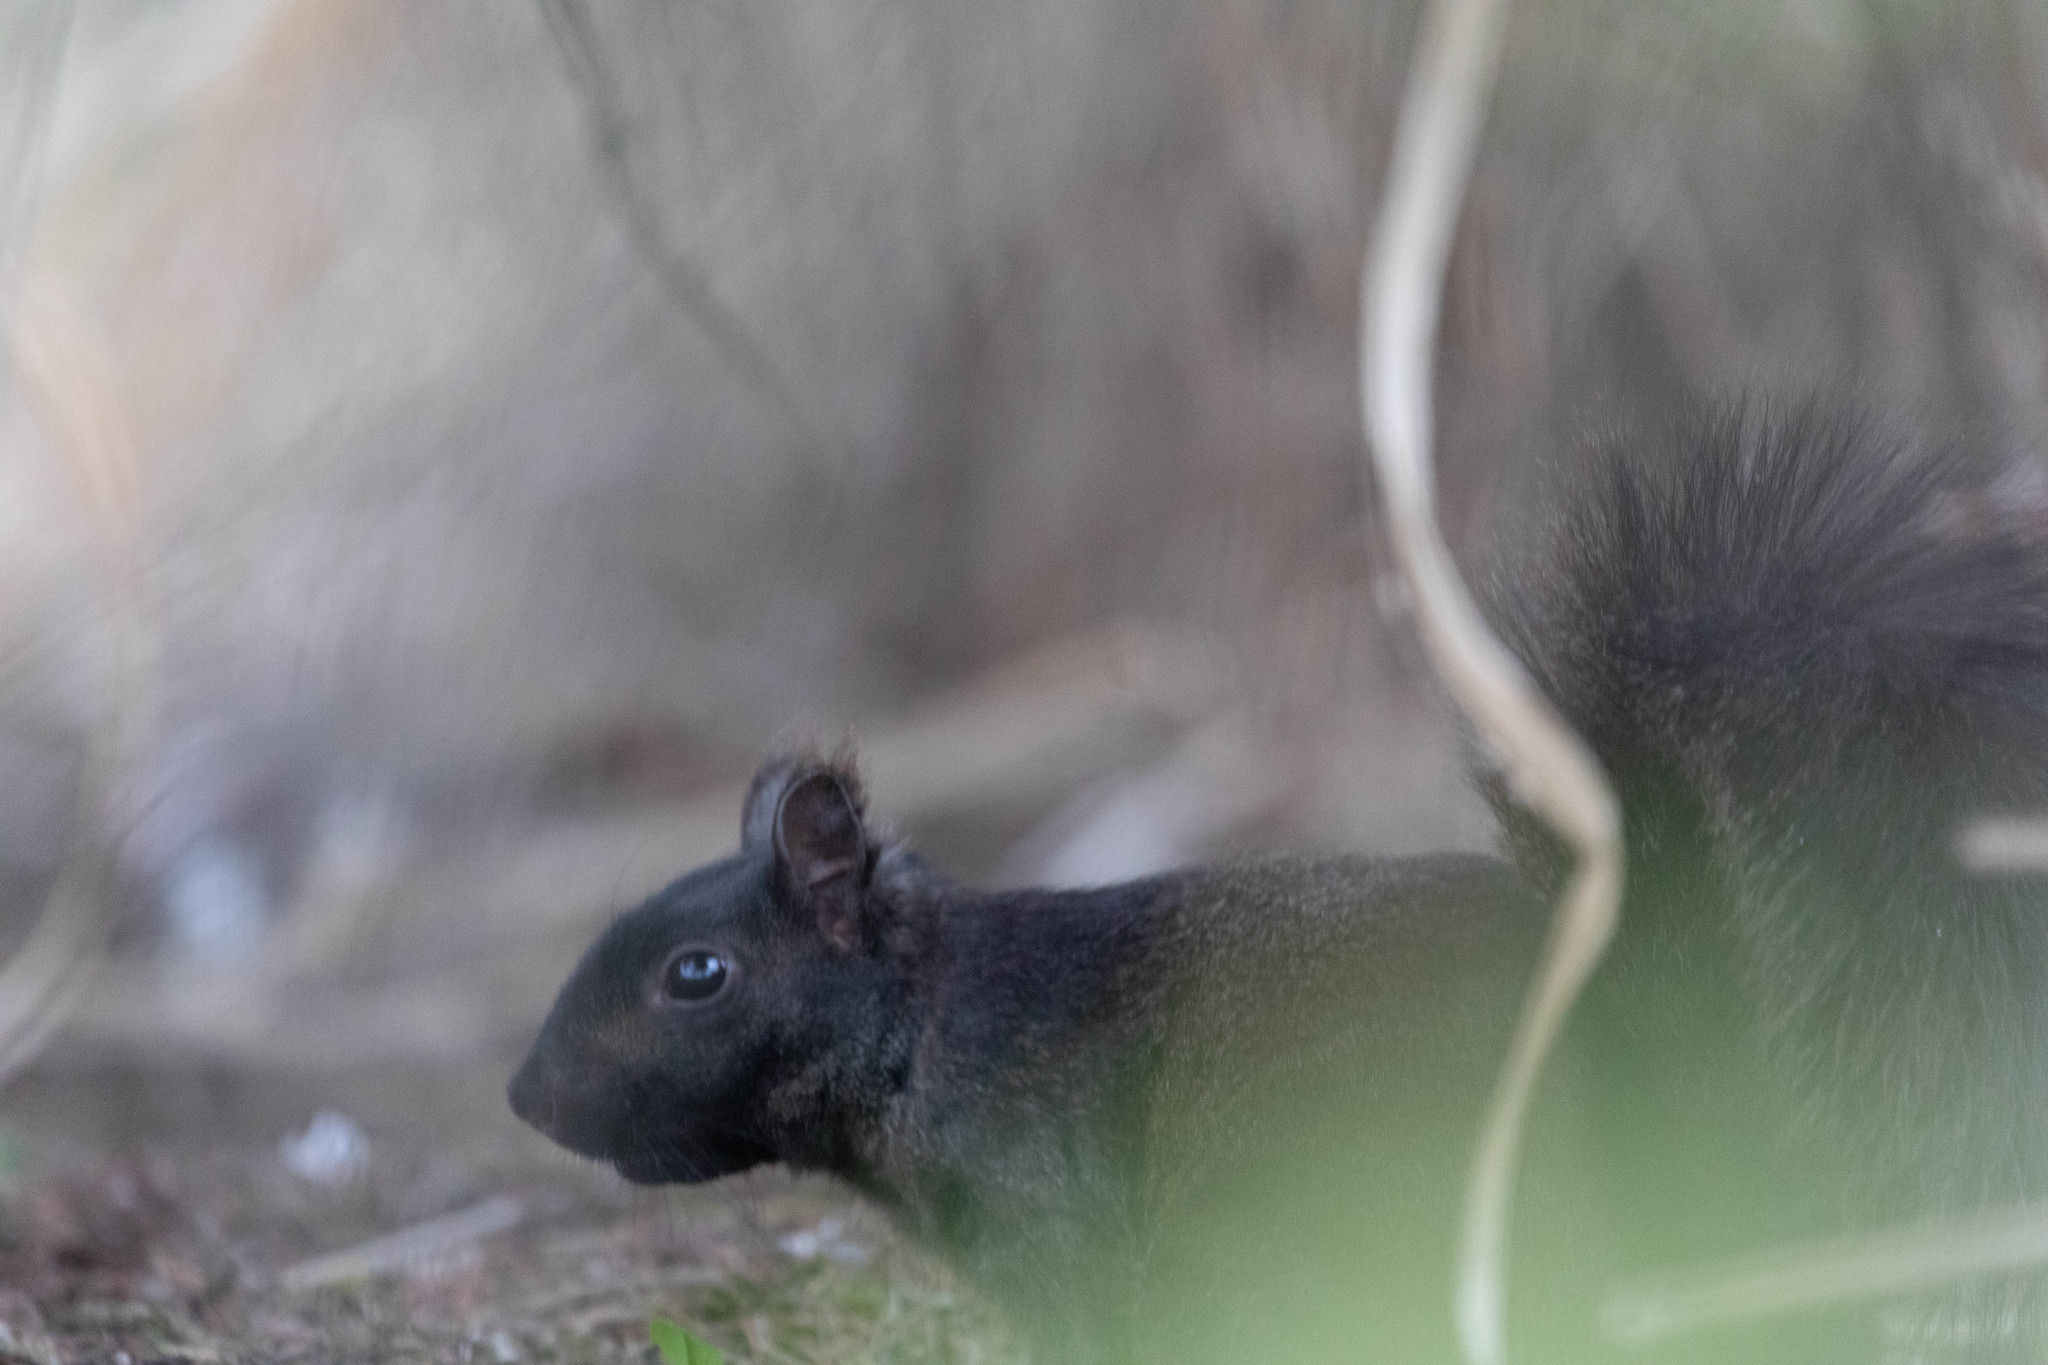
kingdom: Animalia
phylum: Chordata
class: Mammalia
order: Rodentia
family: Sciuridae
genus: Sciurus
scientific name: Sciurus carolinensis
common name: Eastern gray squirrel
